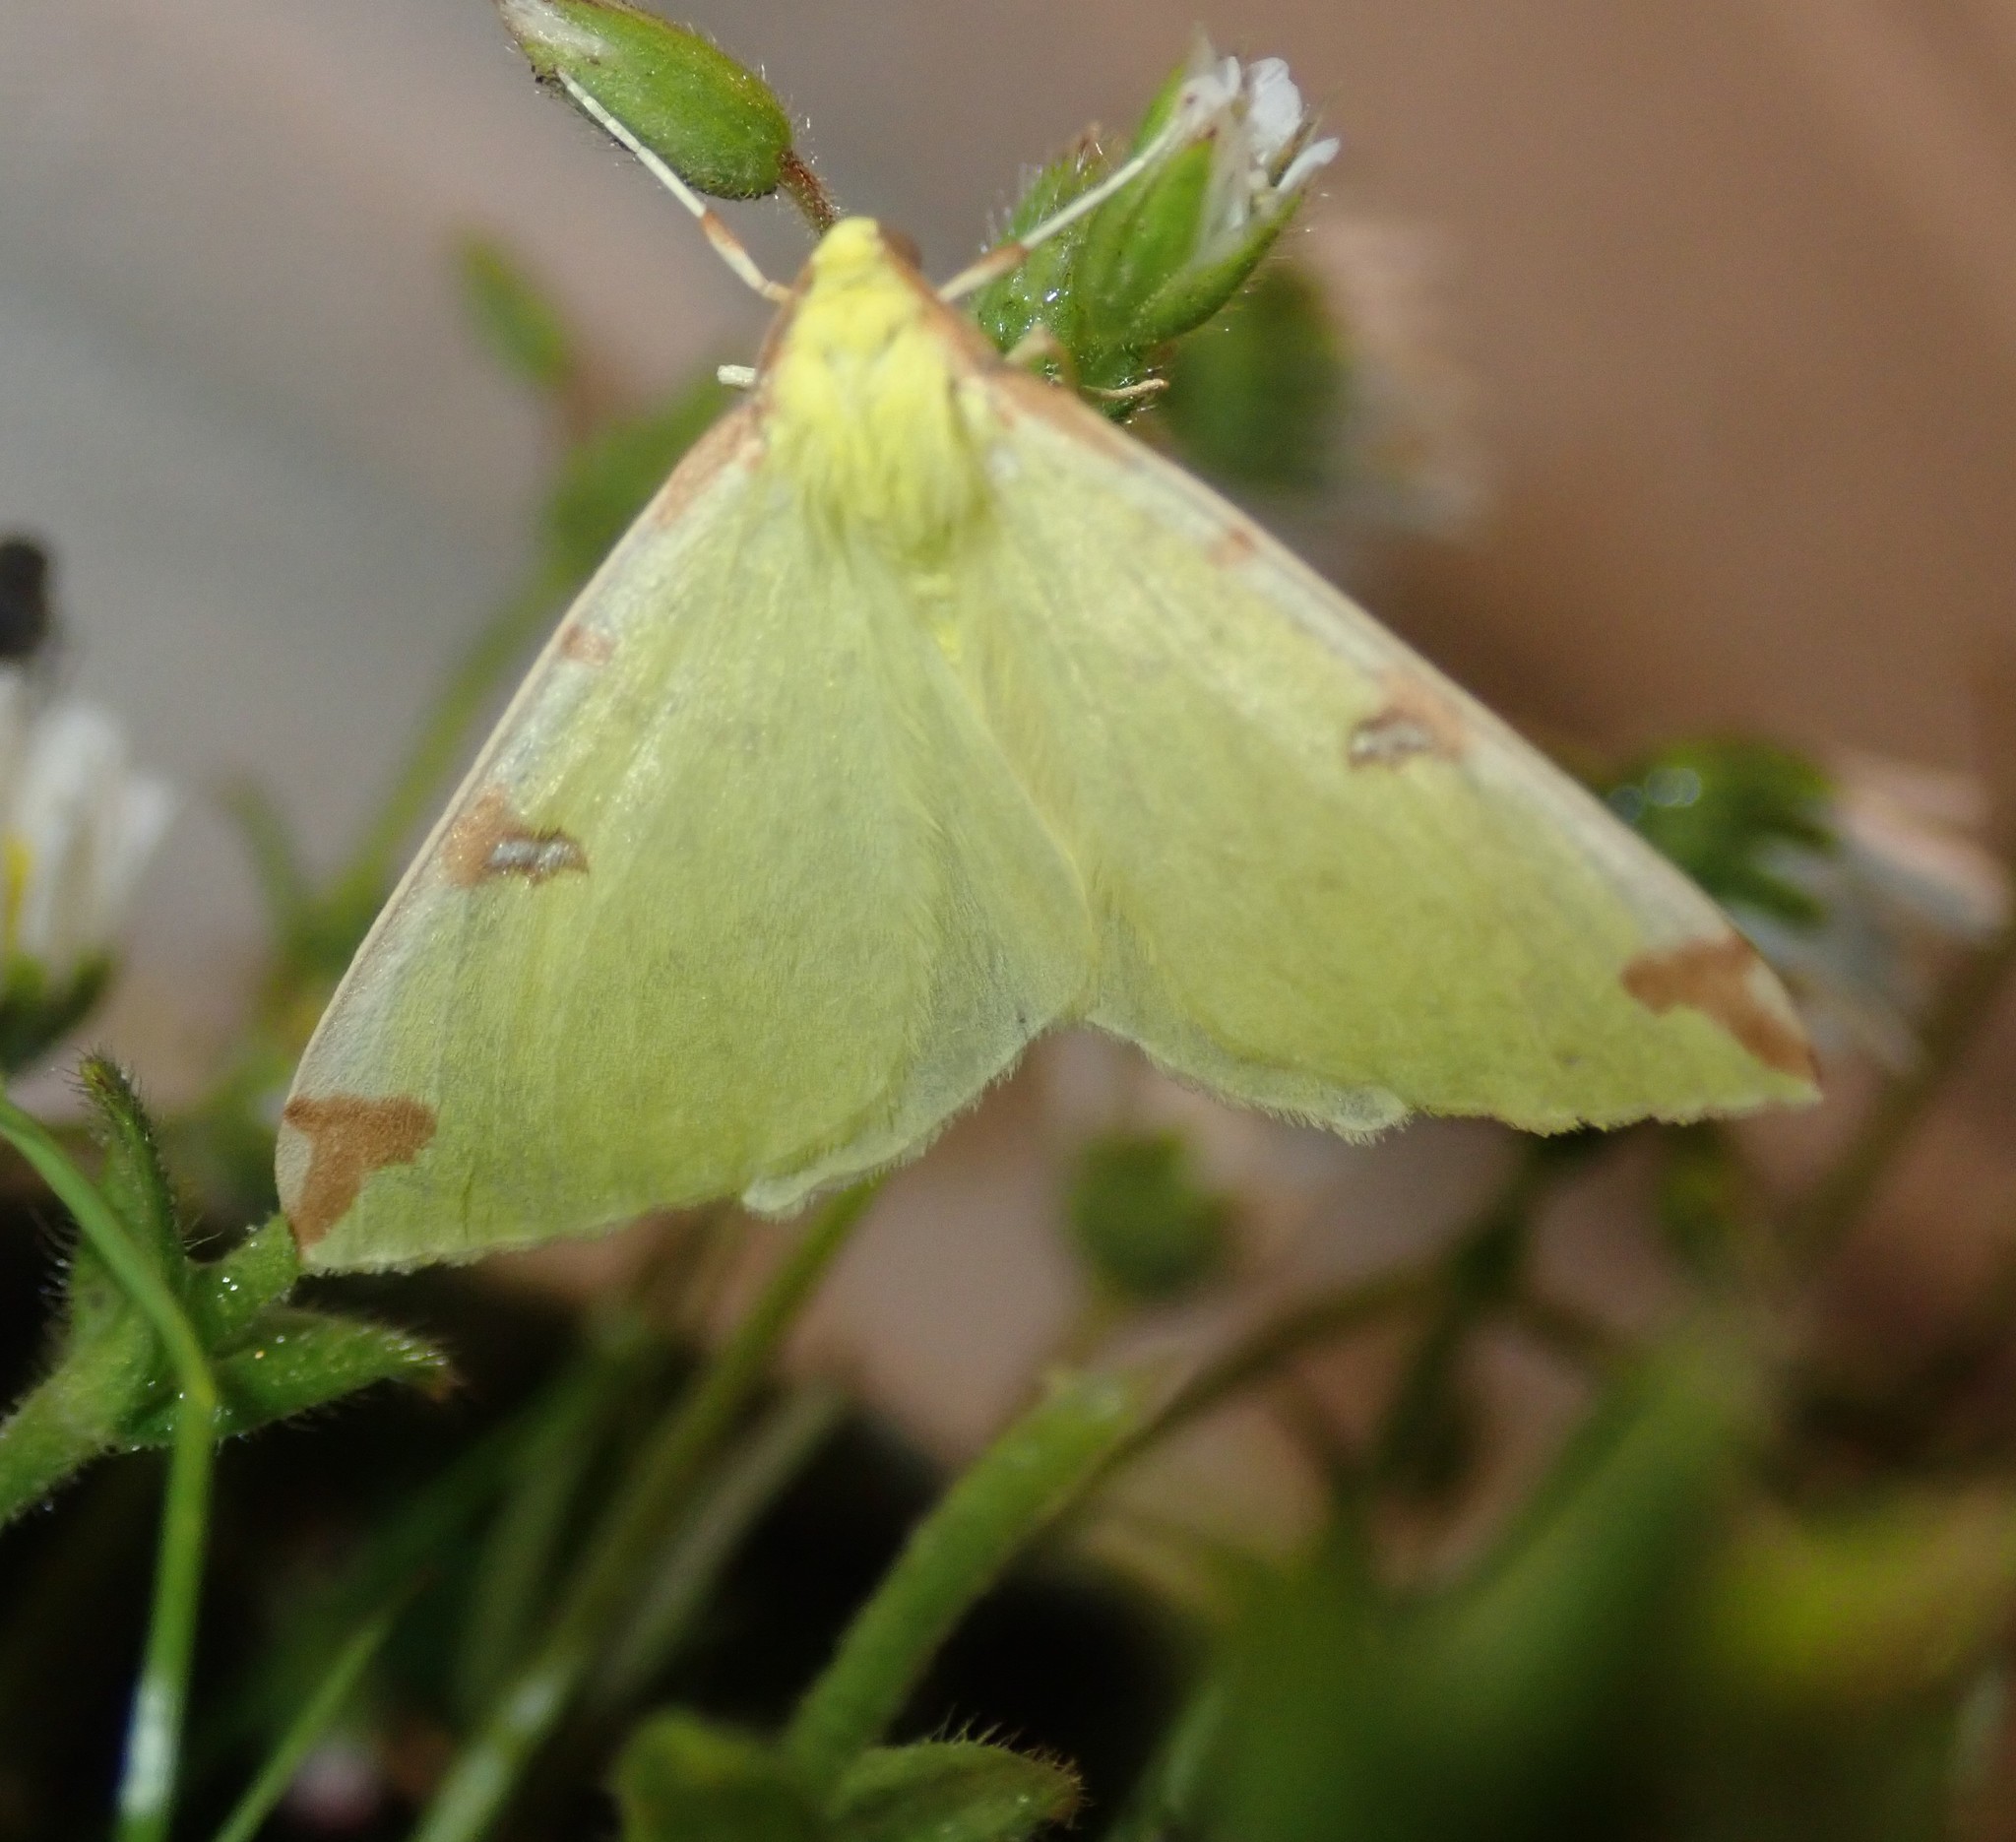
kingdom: Animalia
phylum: Arthropoda
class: Insecta
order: Lepidoptera
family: Geometridae
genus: Opisthograptis
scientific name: Opisthograptis luteolata
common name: Brimstone moth
